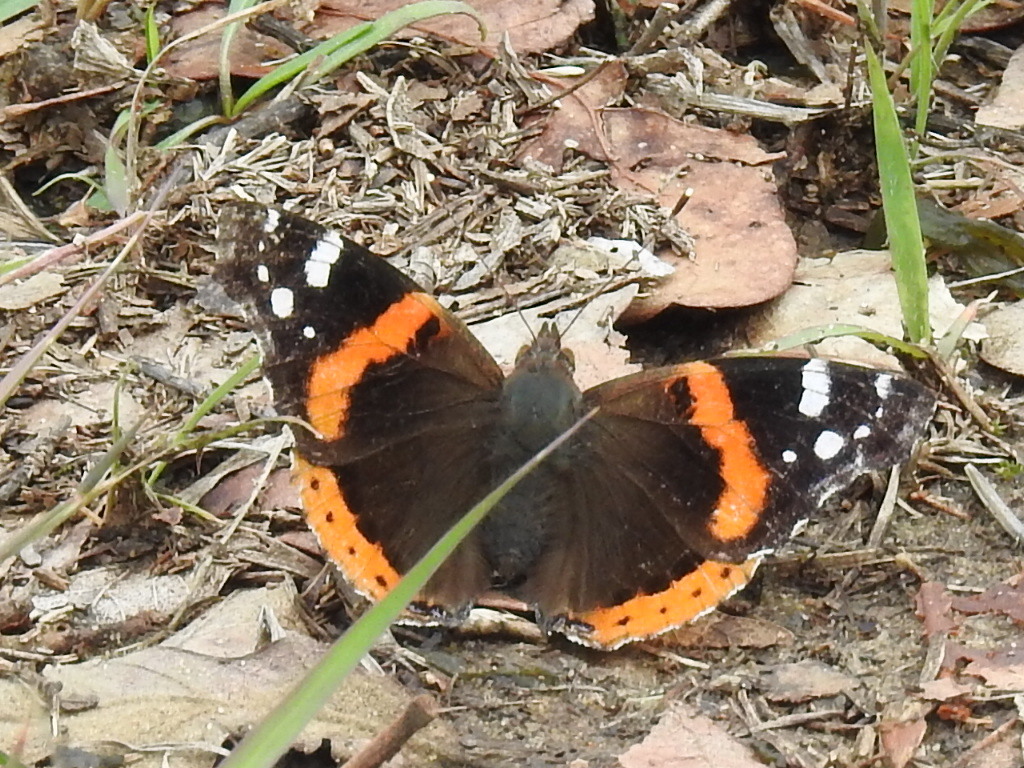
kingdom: Animalia
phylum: Arthropoda
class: Insecta
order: Lepidoptera
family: Nymphalidae
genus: Vanessa
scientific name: Vanessa atalanta
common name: Red admiral
